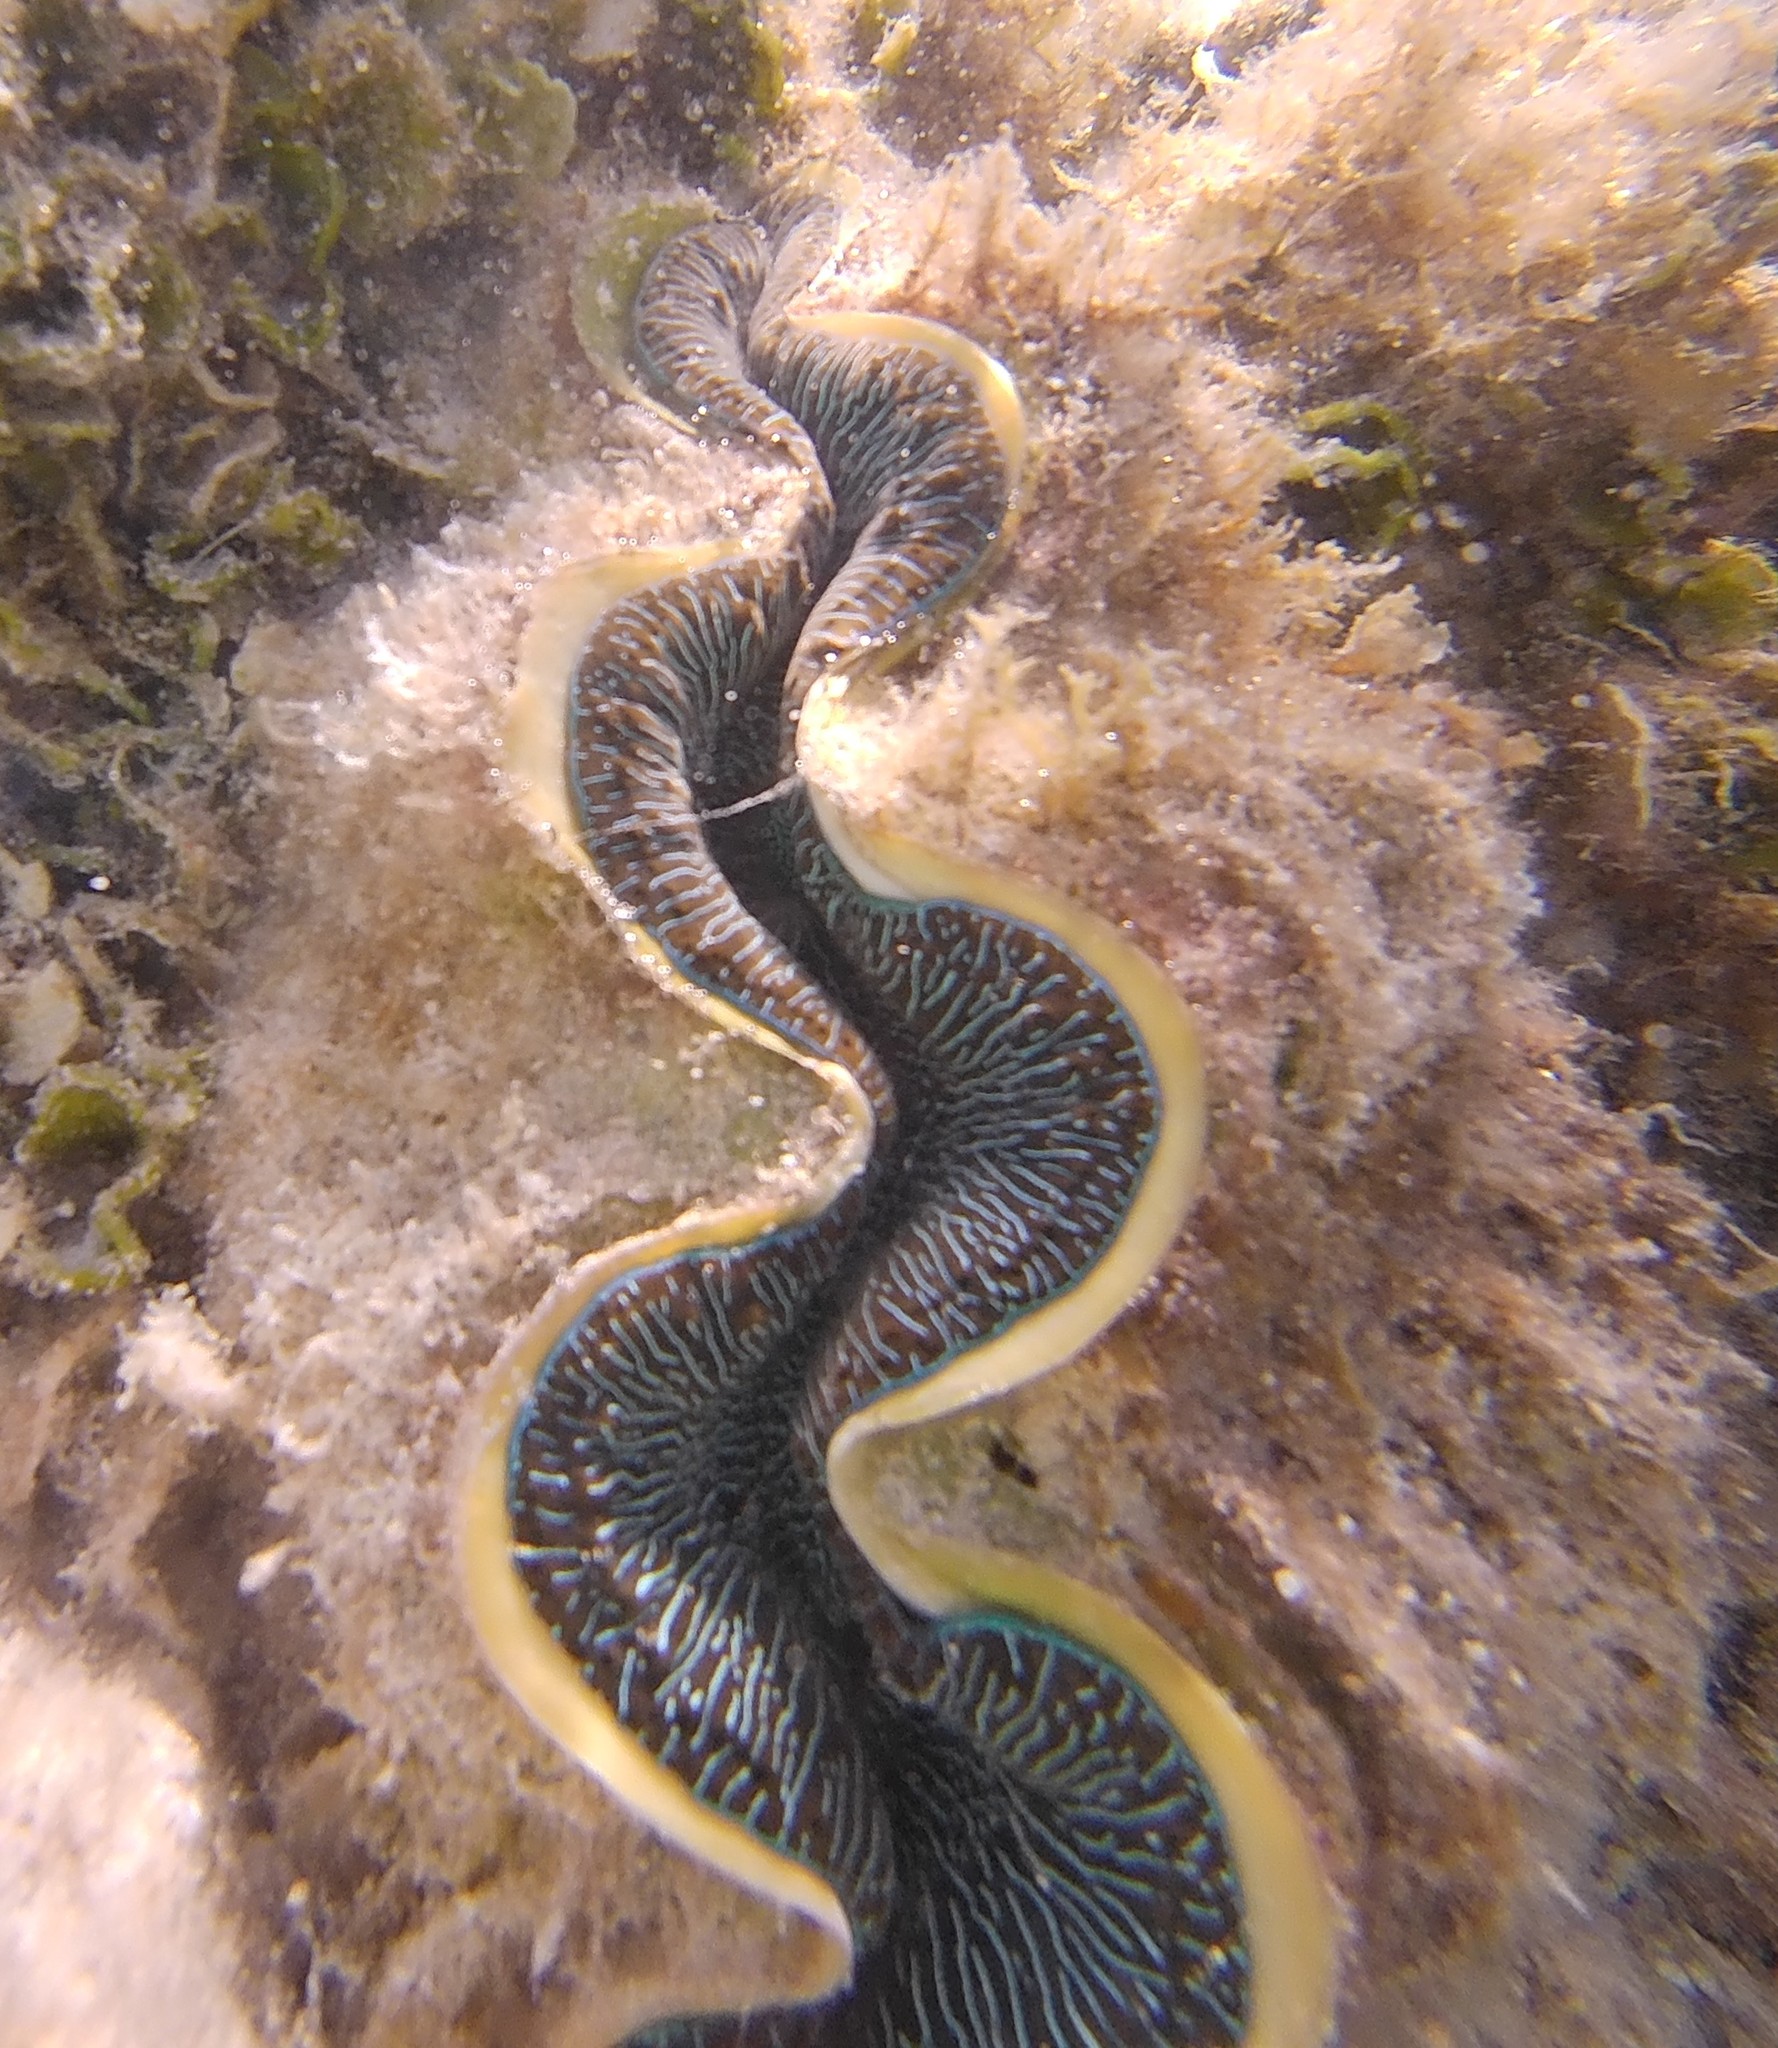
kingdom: Animalia
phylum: Mollusca
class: Bivalvia
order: Cardiida
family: Cardiidae
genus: Tridacna
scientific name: Tridacna maxima
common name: Small giant clam
